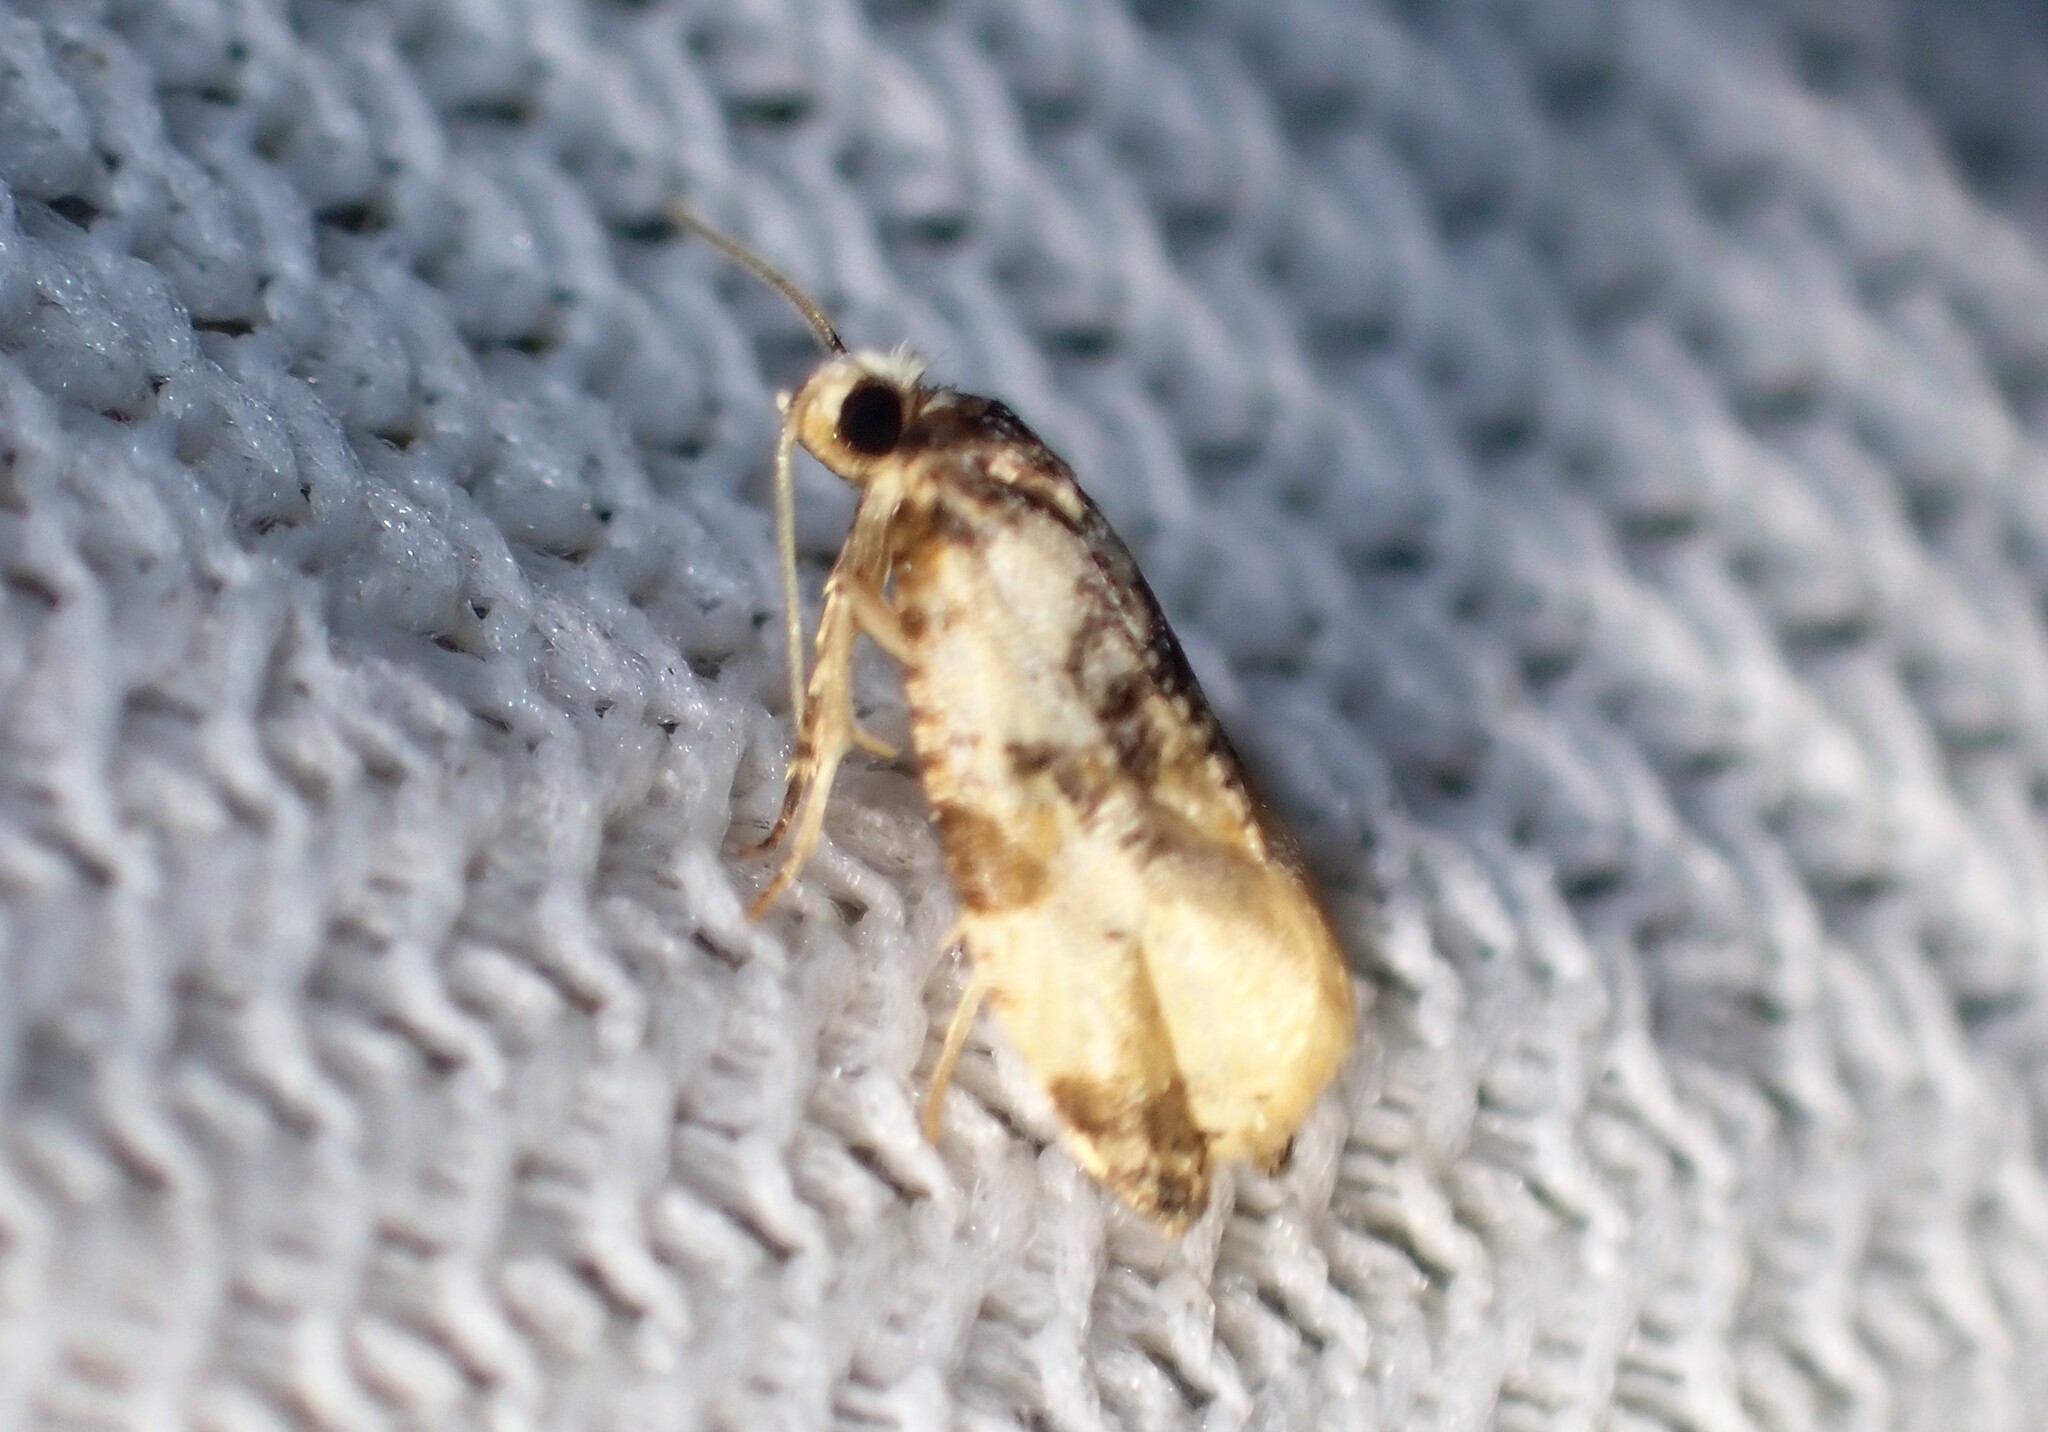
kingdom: Animalia
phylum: Arthropoda
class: Insecta
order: Lepidoptera
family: Tortricidae
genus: Phalonidia
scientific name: Phalonidia memoranda
